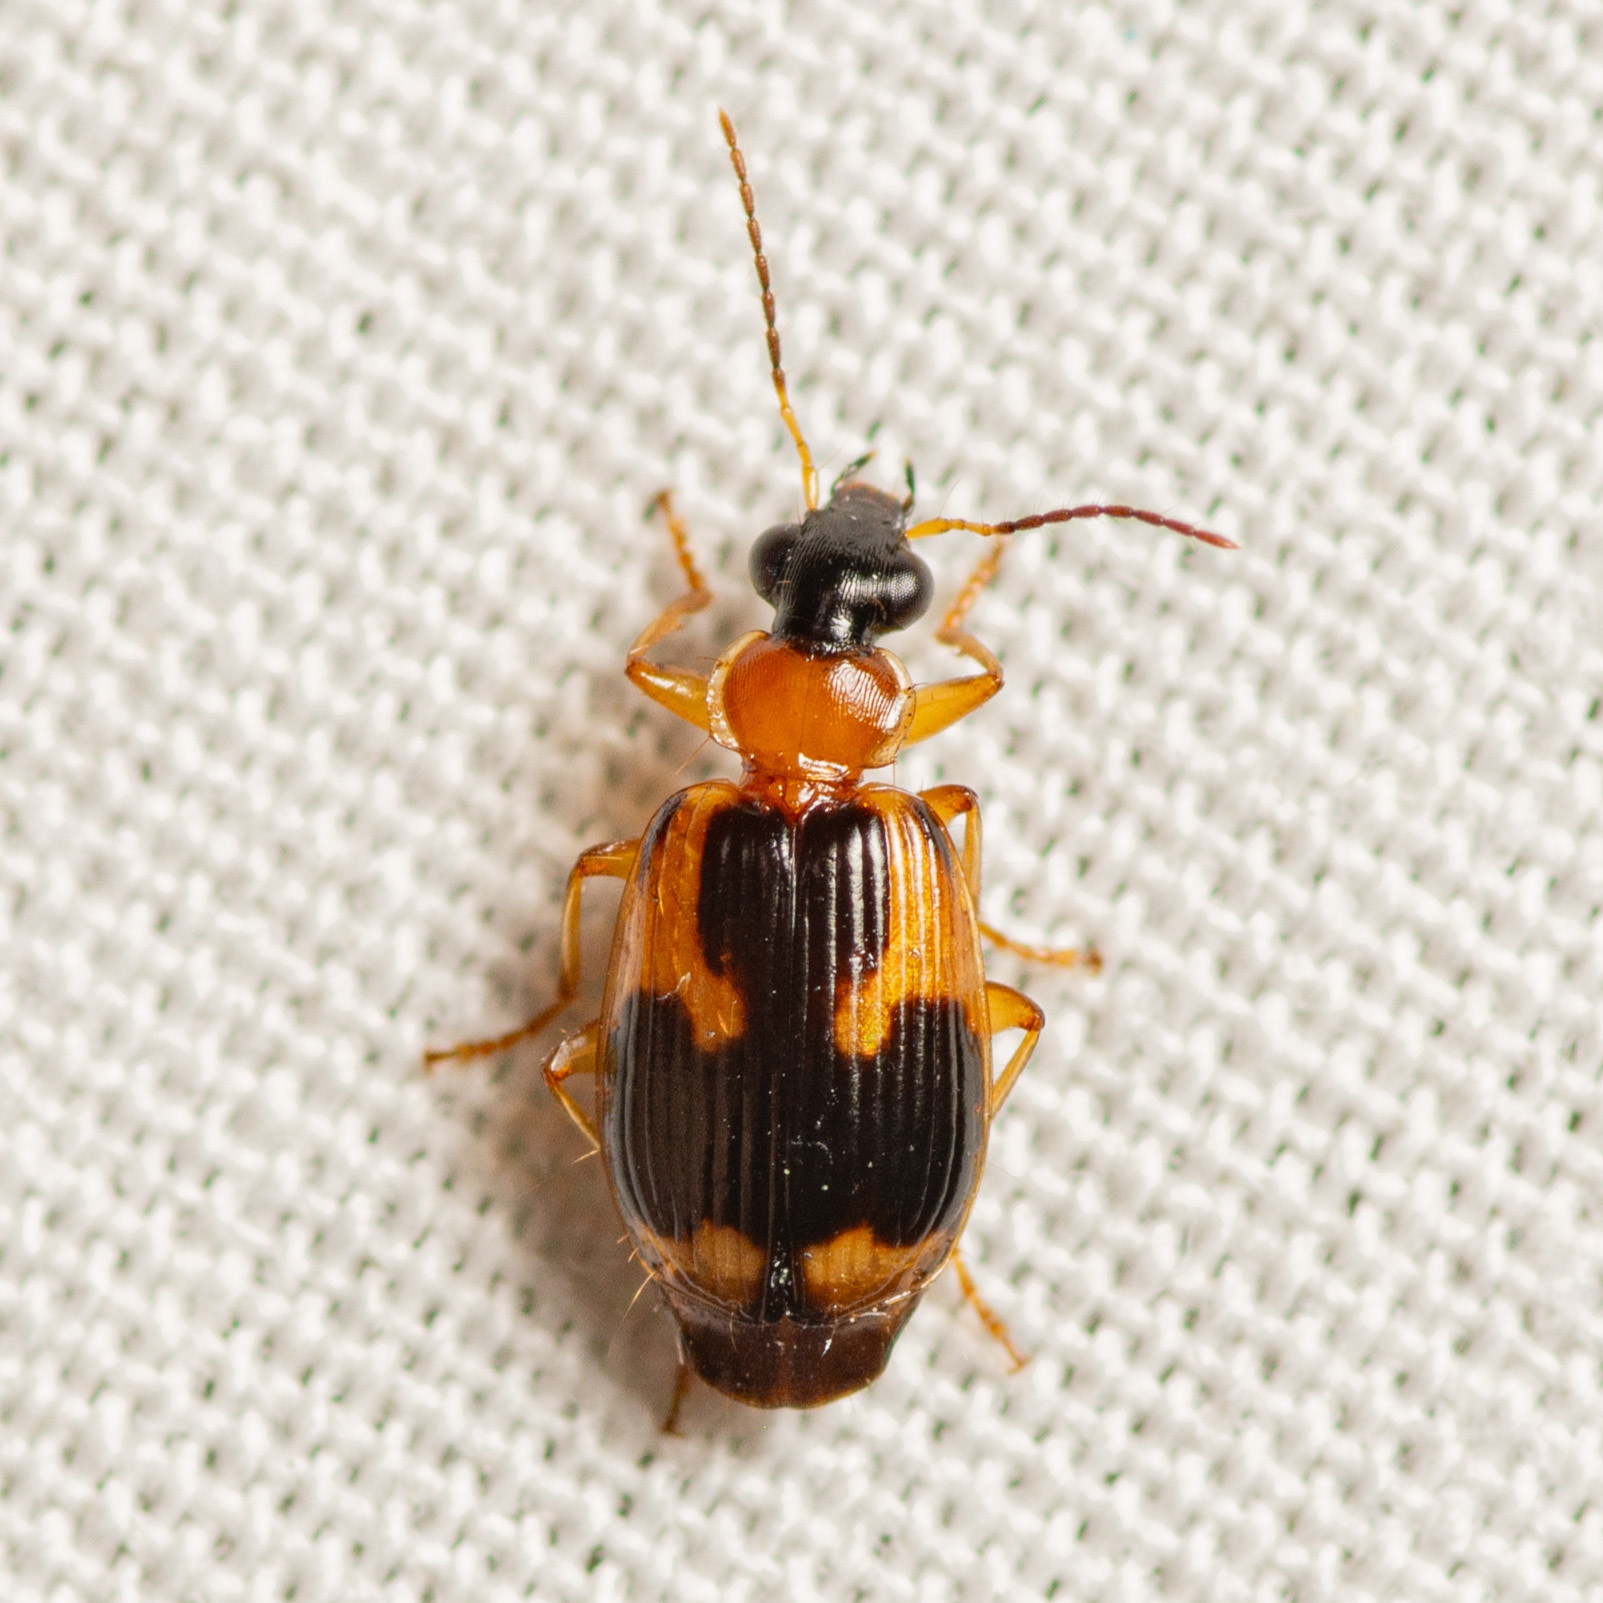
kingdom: Animalia
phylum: Arthropoda
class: Insecta
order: Coleoptera
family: Carabidae
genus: Lebia
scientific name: Lebia analis
